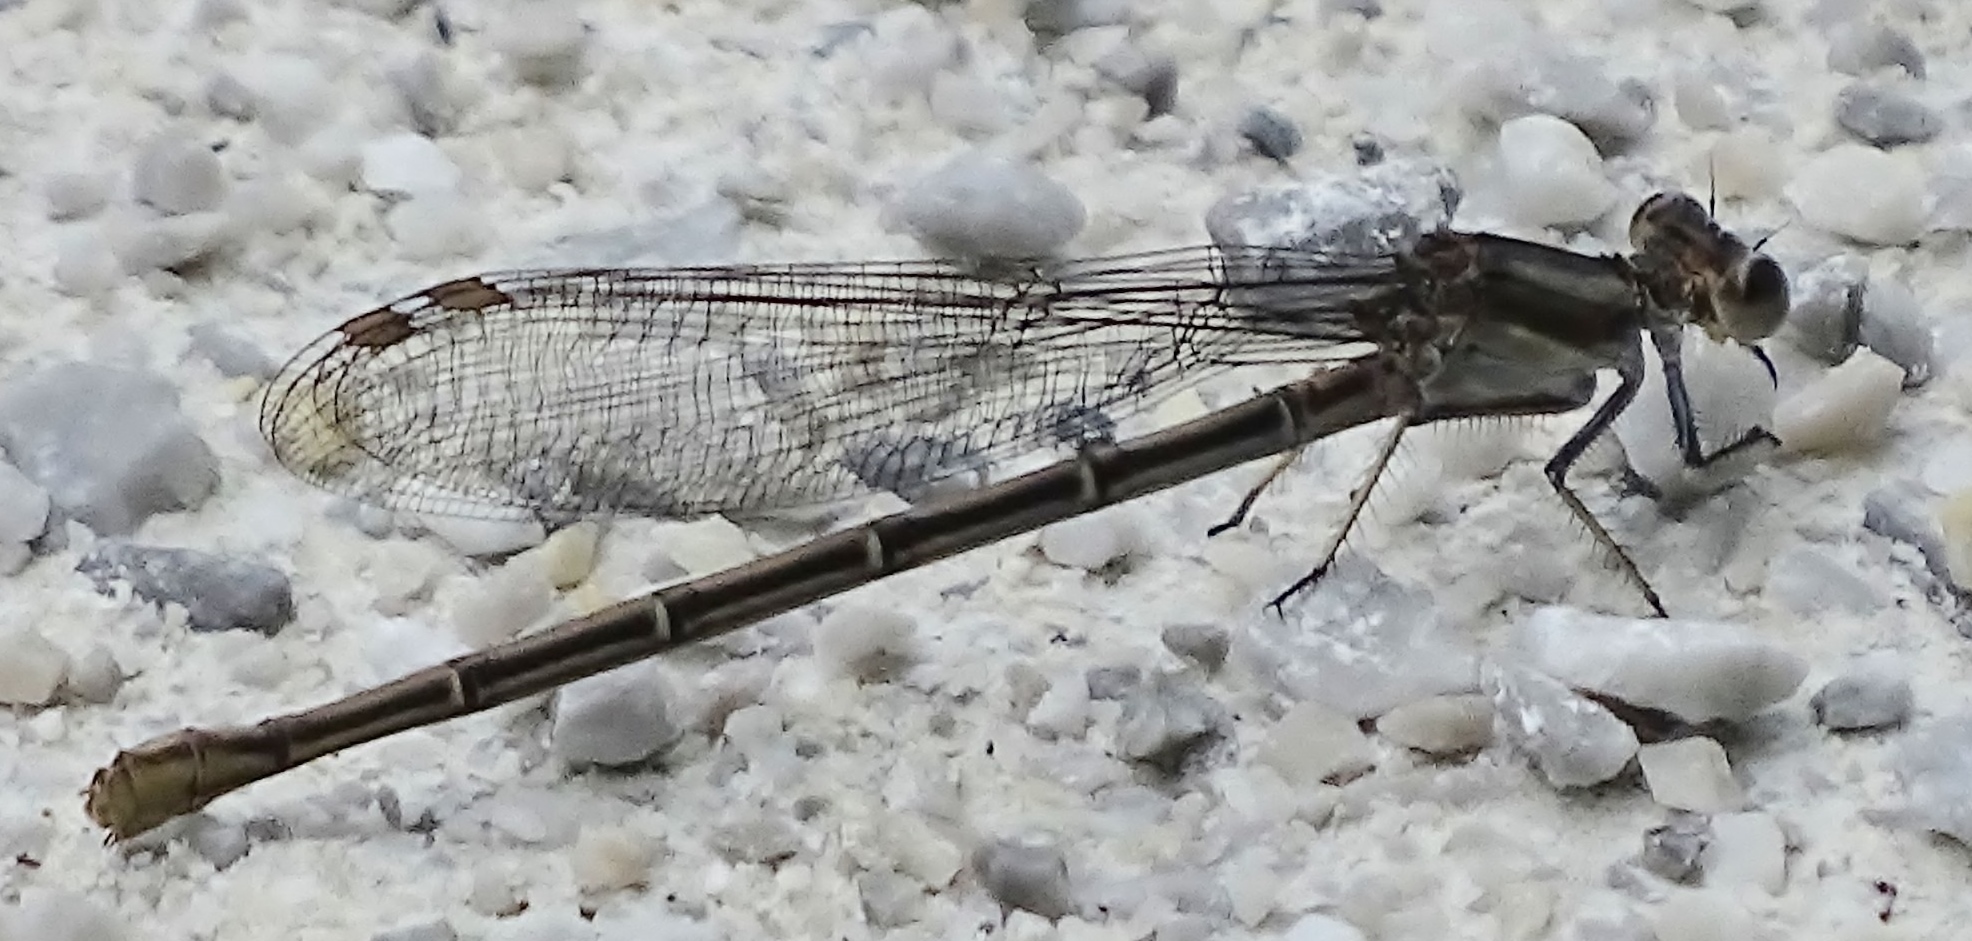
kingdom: Animalia
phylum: Arthropoda
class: Insecta
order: Odonata
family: Coenagrionidae
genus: Argia
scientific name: Argia moesta
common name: Powdered dancer
